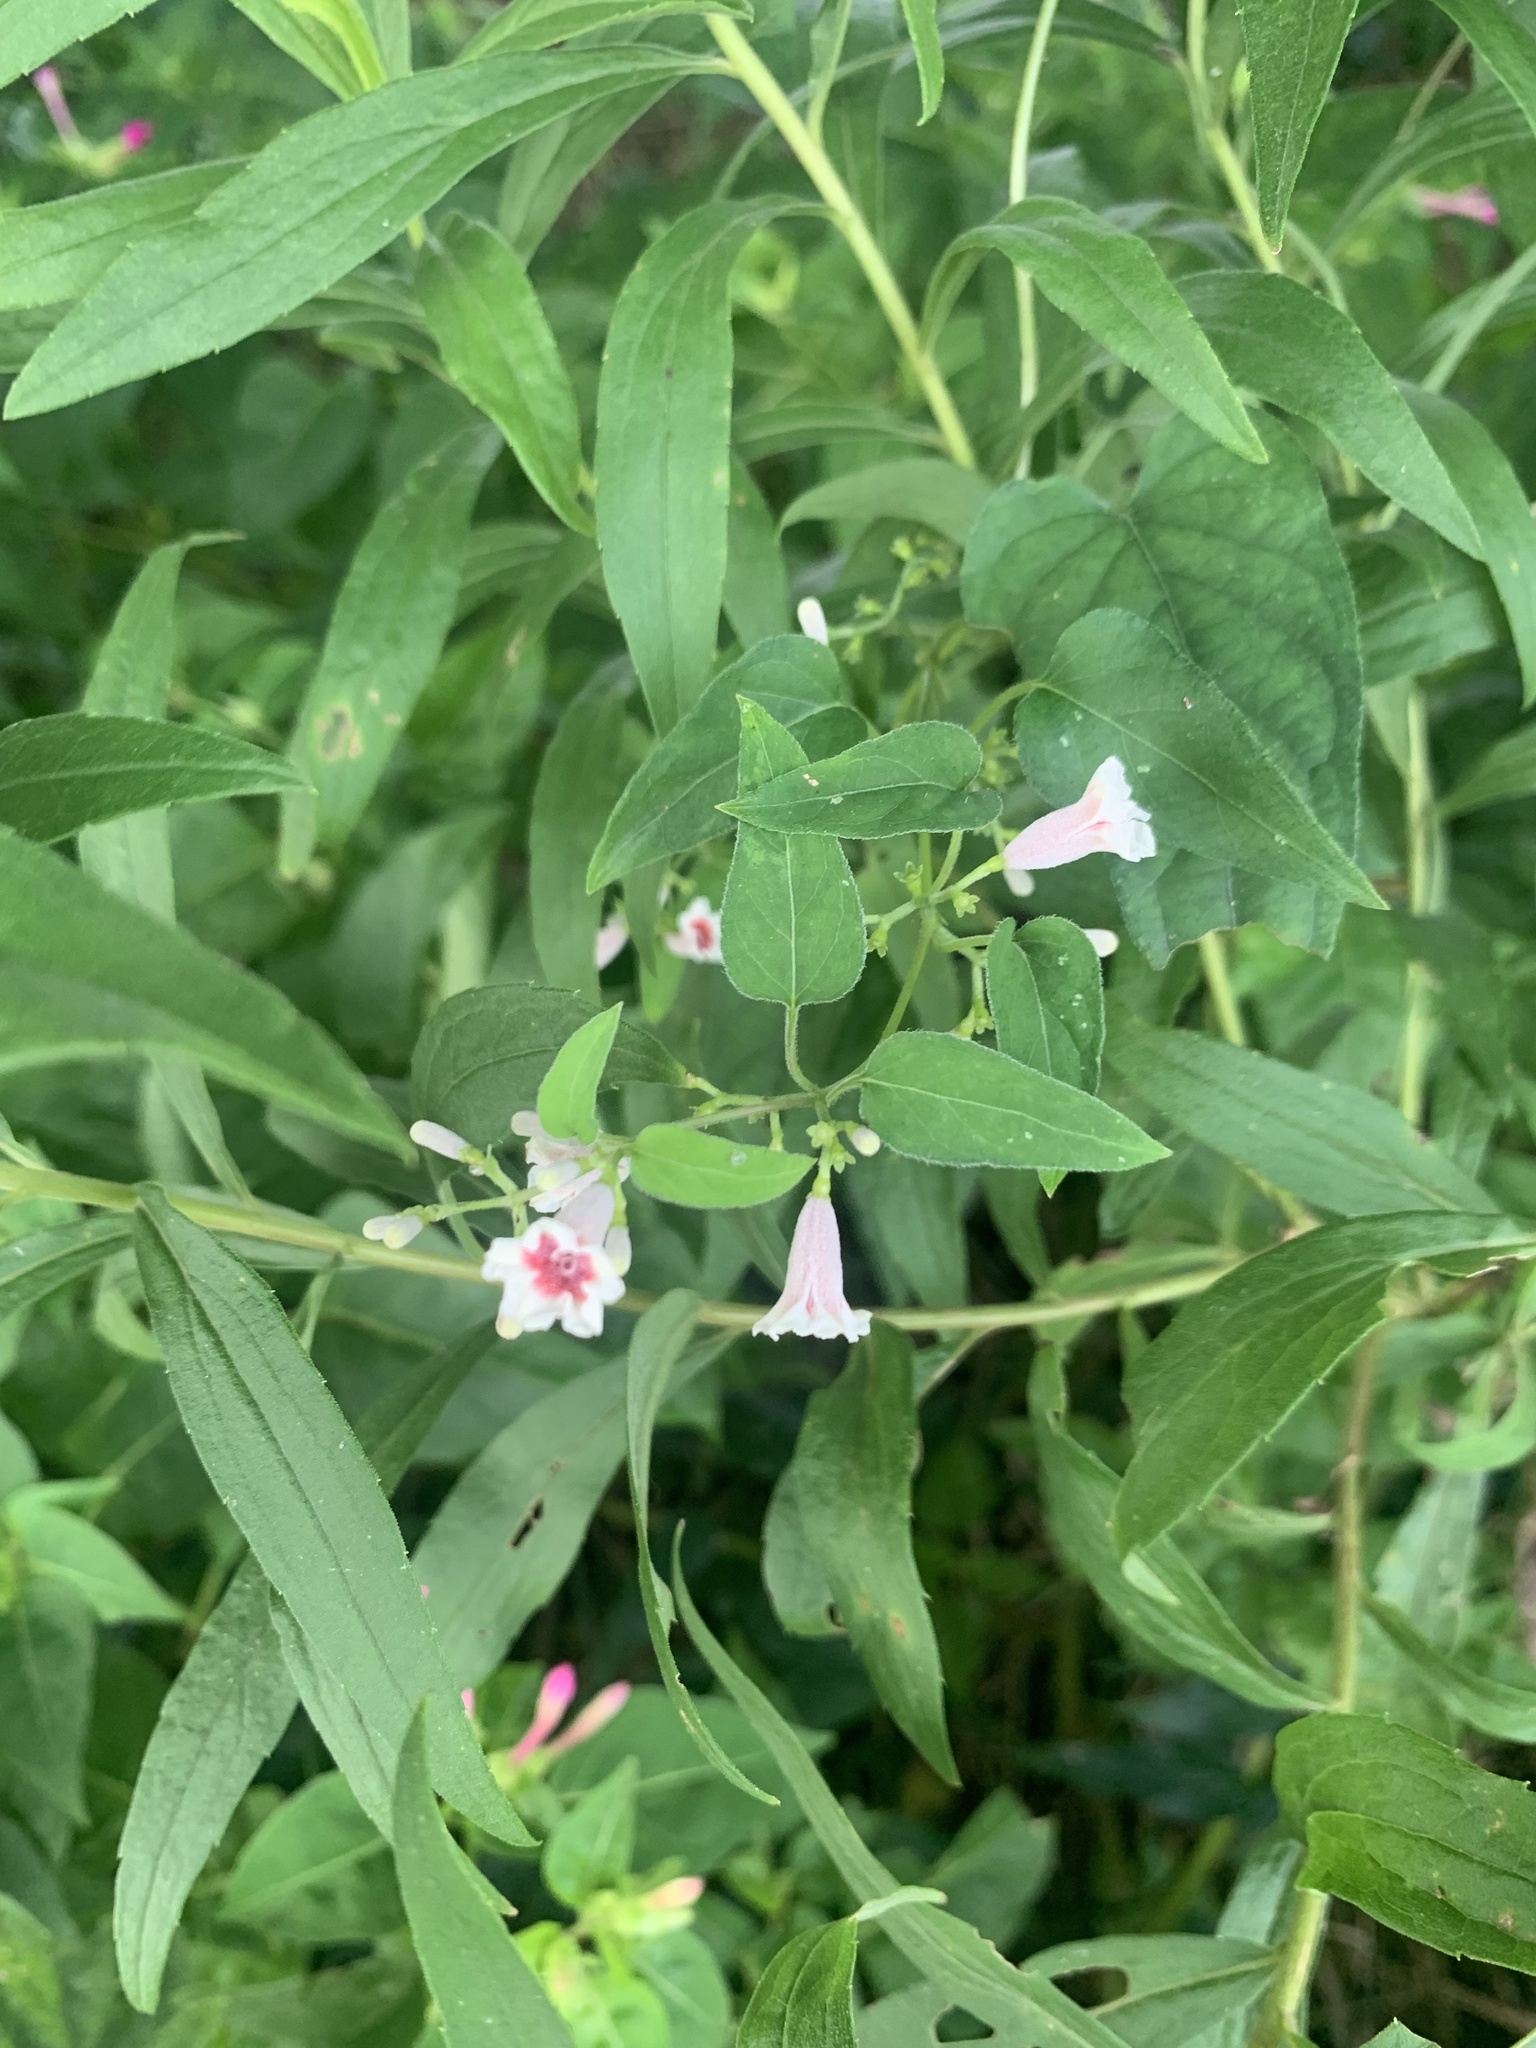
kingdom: Plantae
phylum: Tracheophyta
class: Magnoliopsida
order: Gentianales
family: Rubiaceae
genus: Paederia
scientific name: Paederia foetida
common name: Stinkvine
